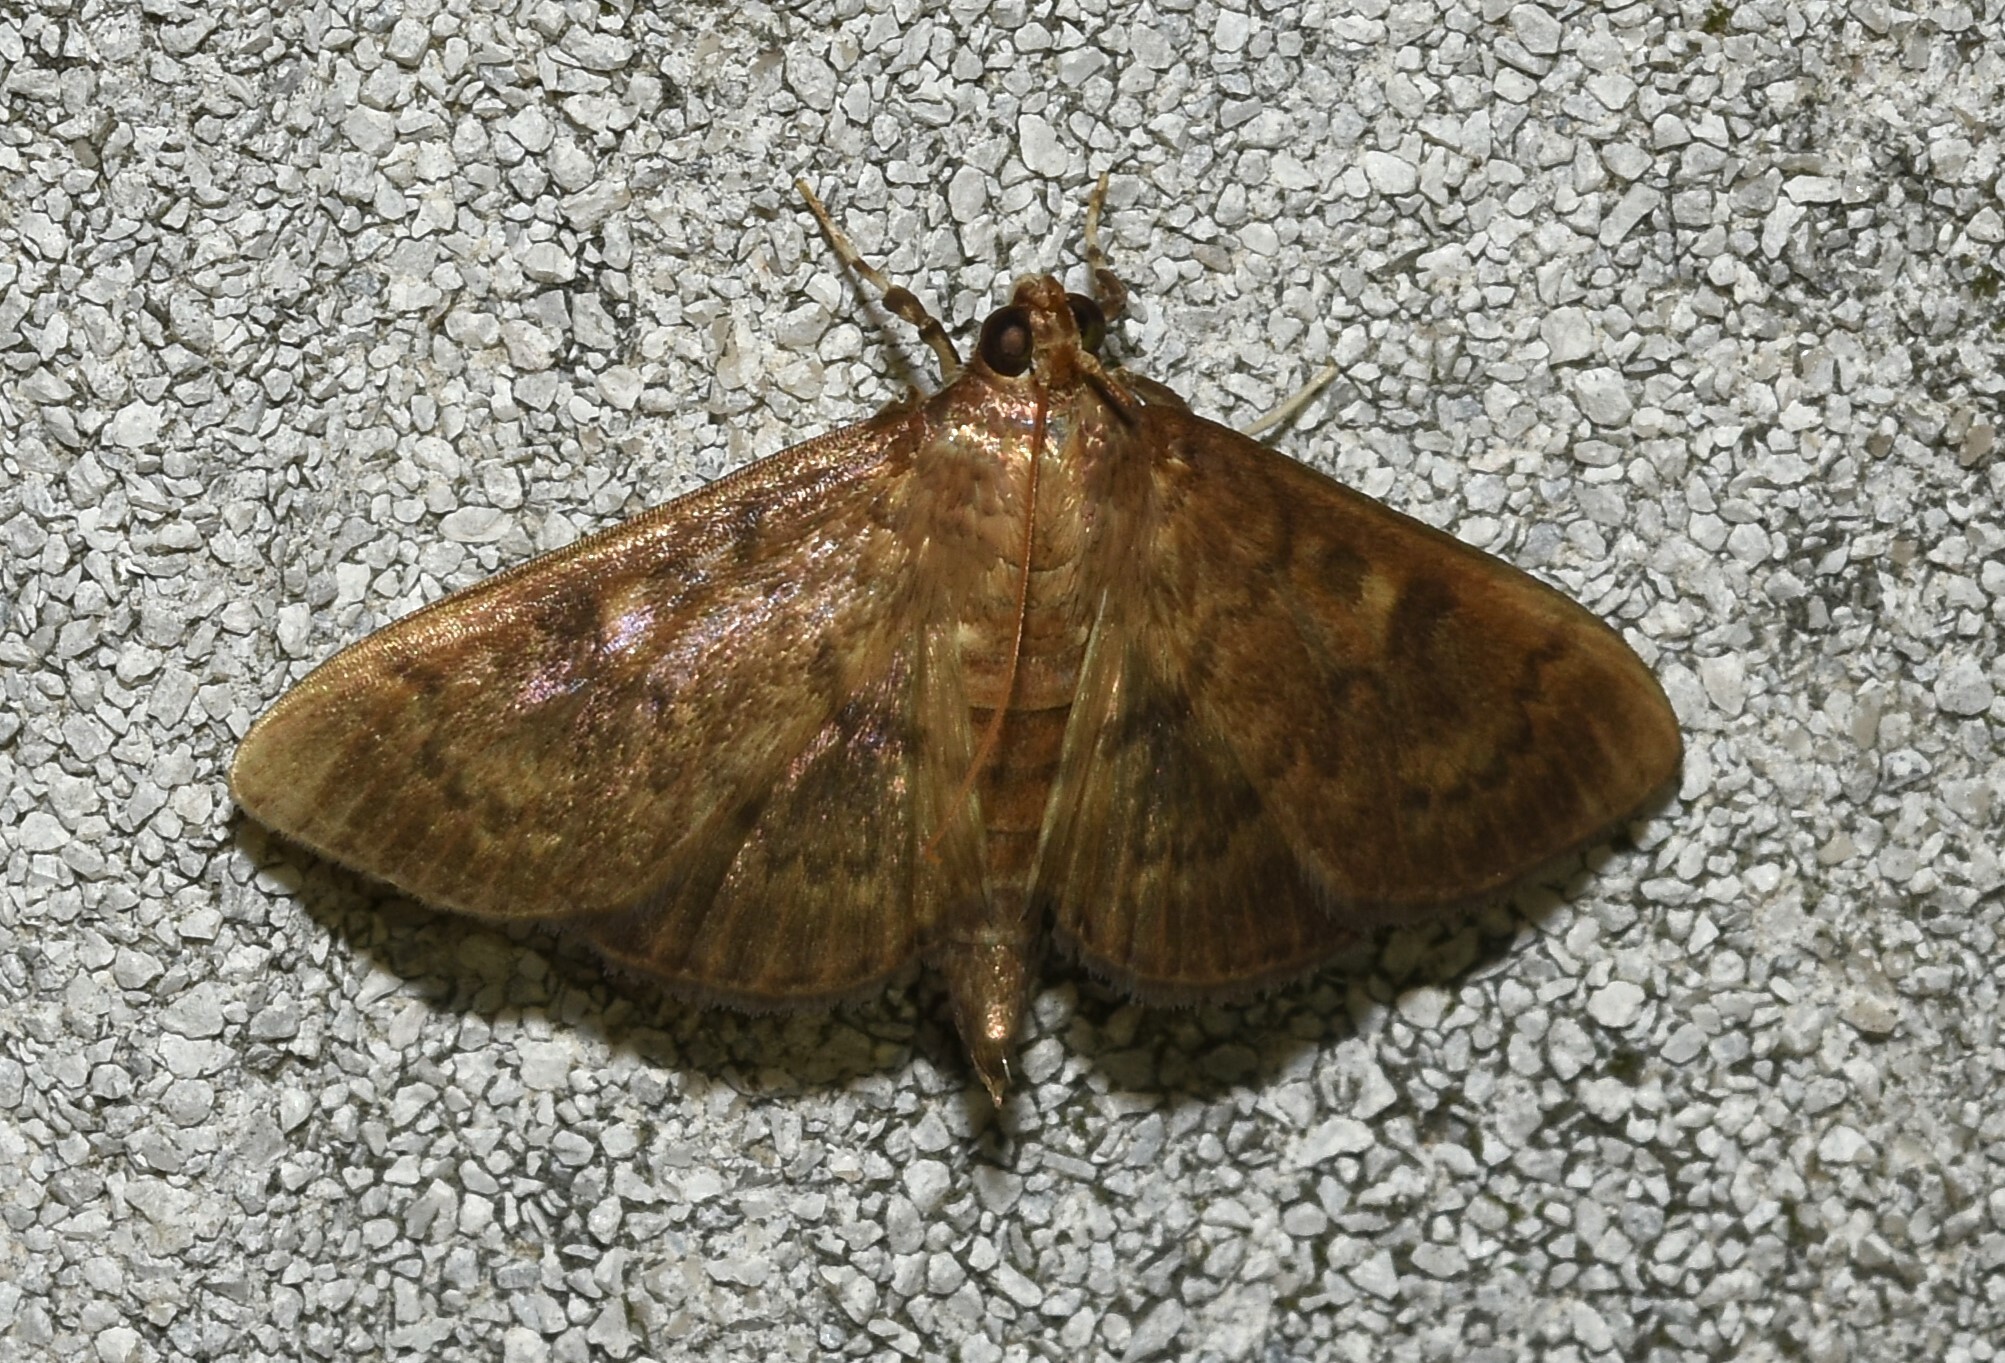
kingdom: Animalia
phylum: Arthropoda
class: Insecta
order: Lepidoptera
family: Crambidae
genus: Syllepte
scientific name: Syllepte obscuralis
